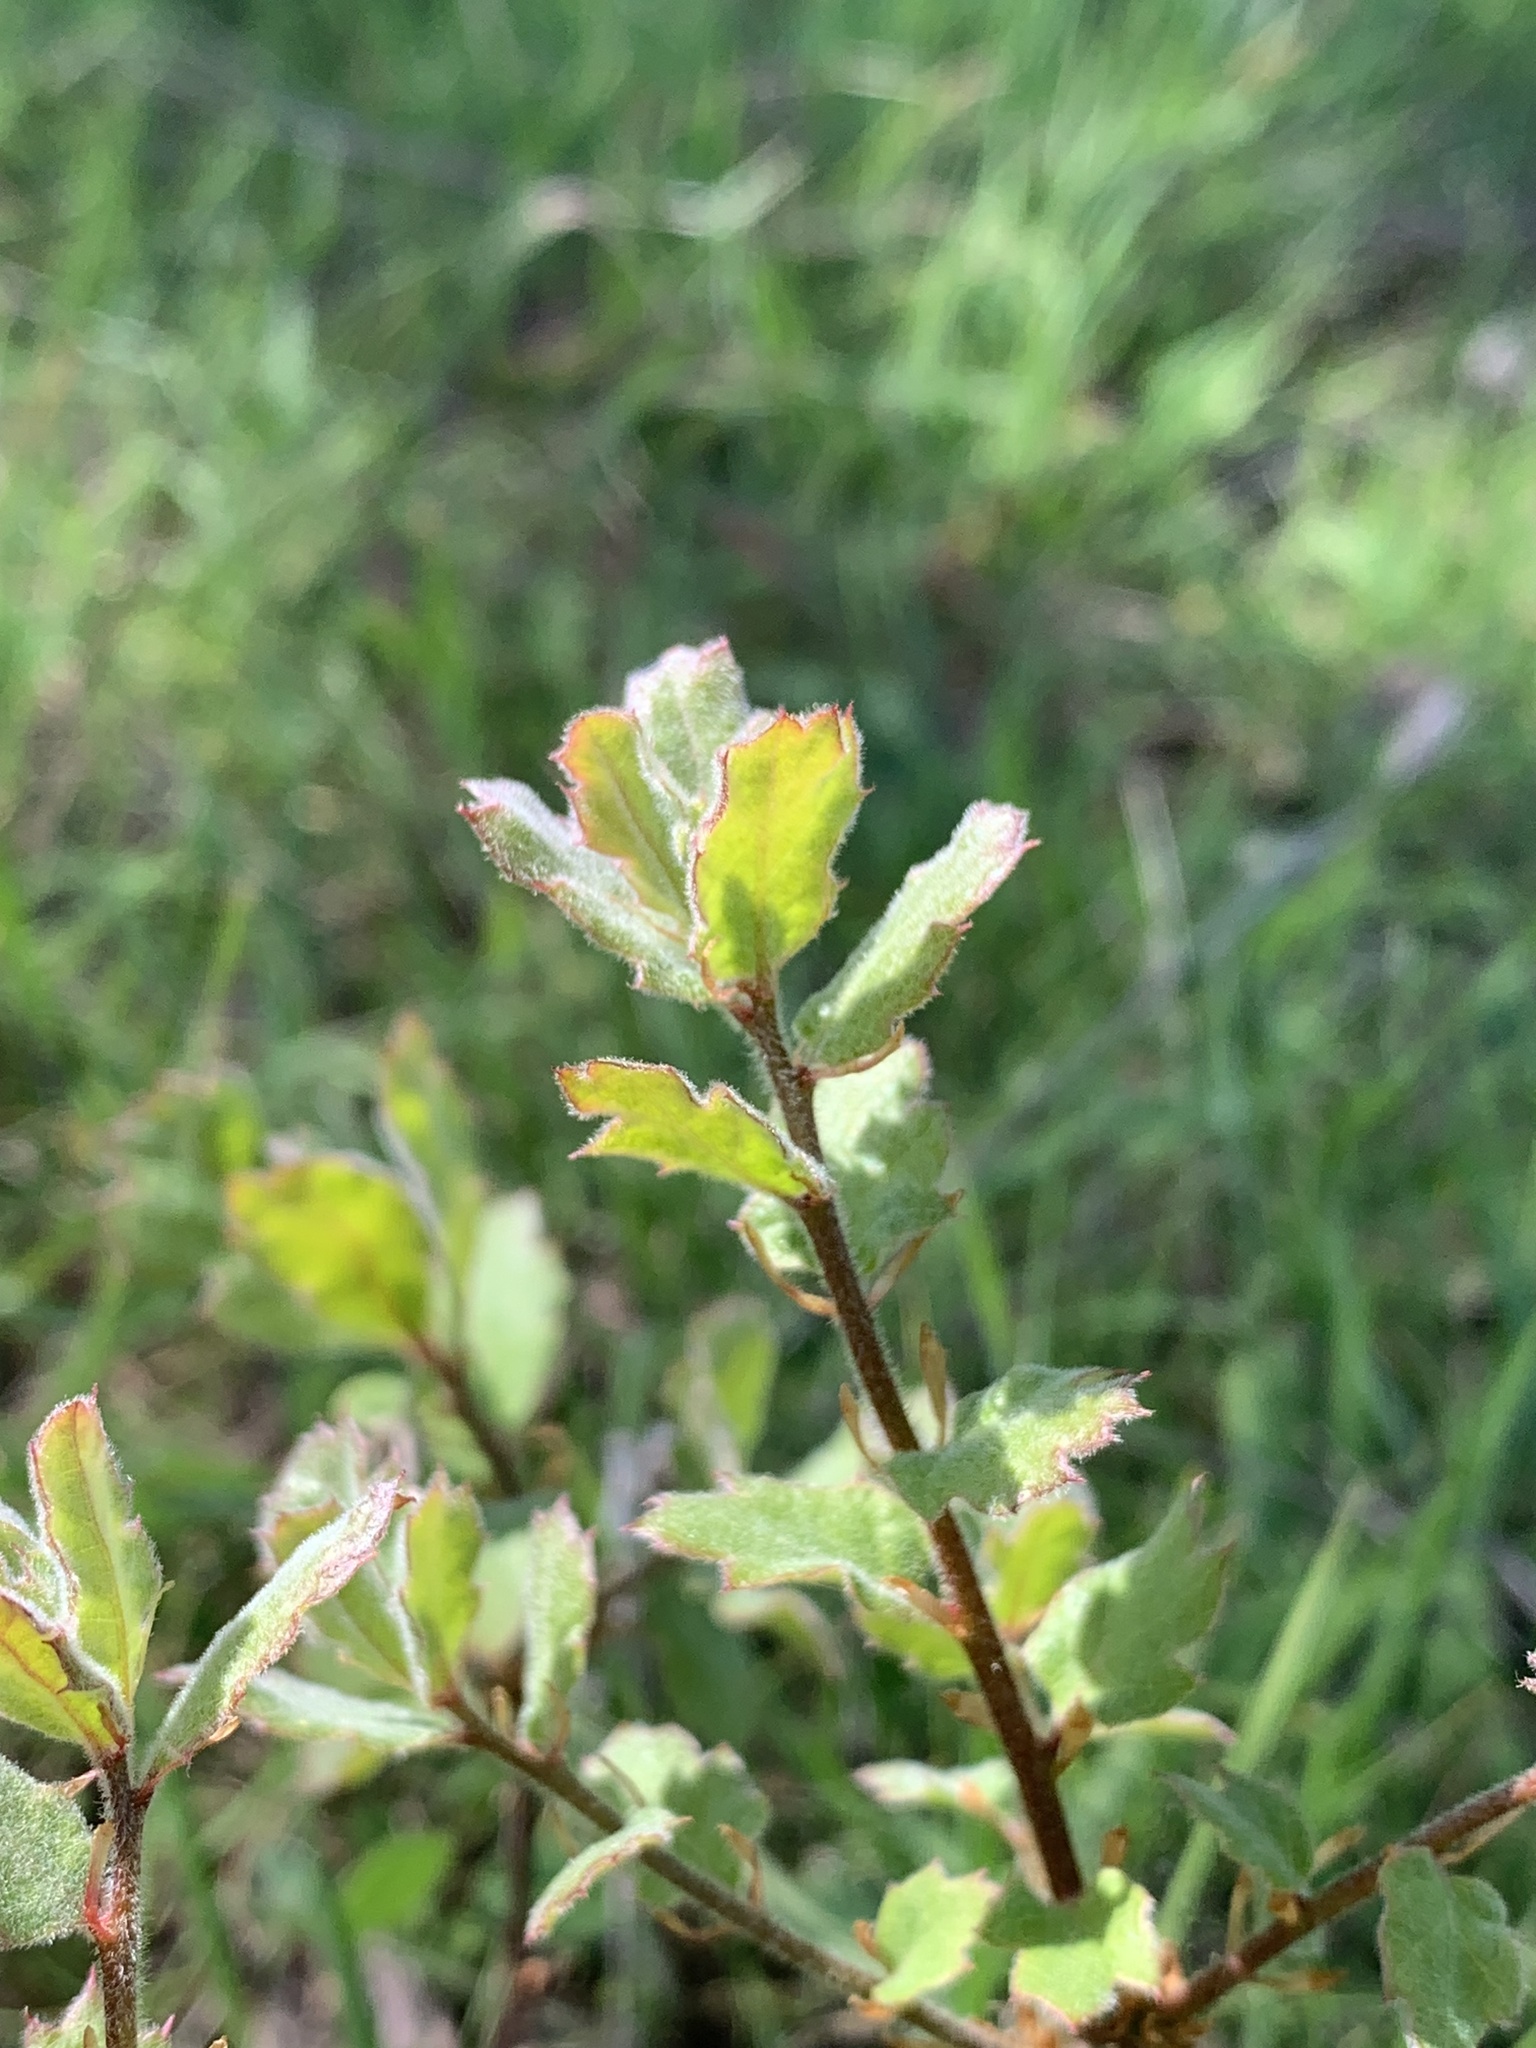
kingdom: Plantae
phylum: Tracheophyta
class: Magnoliopsida
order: Fagales
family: Fagaceae
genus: Quercus
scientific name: Quercus douglasii
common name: Blue oak
